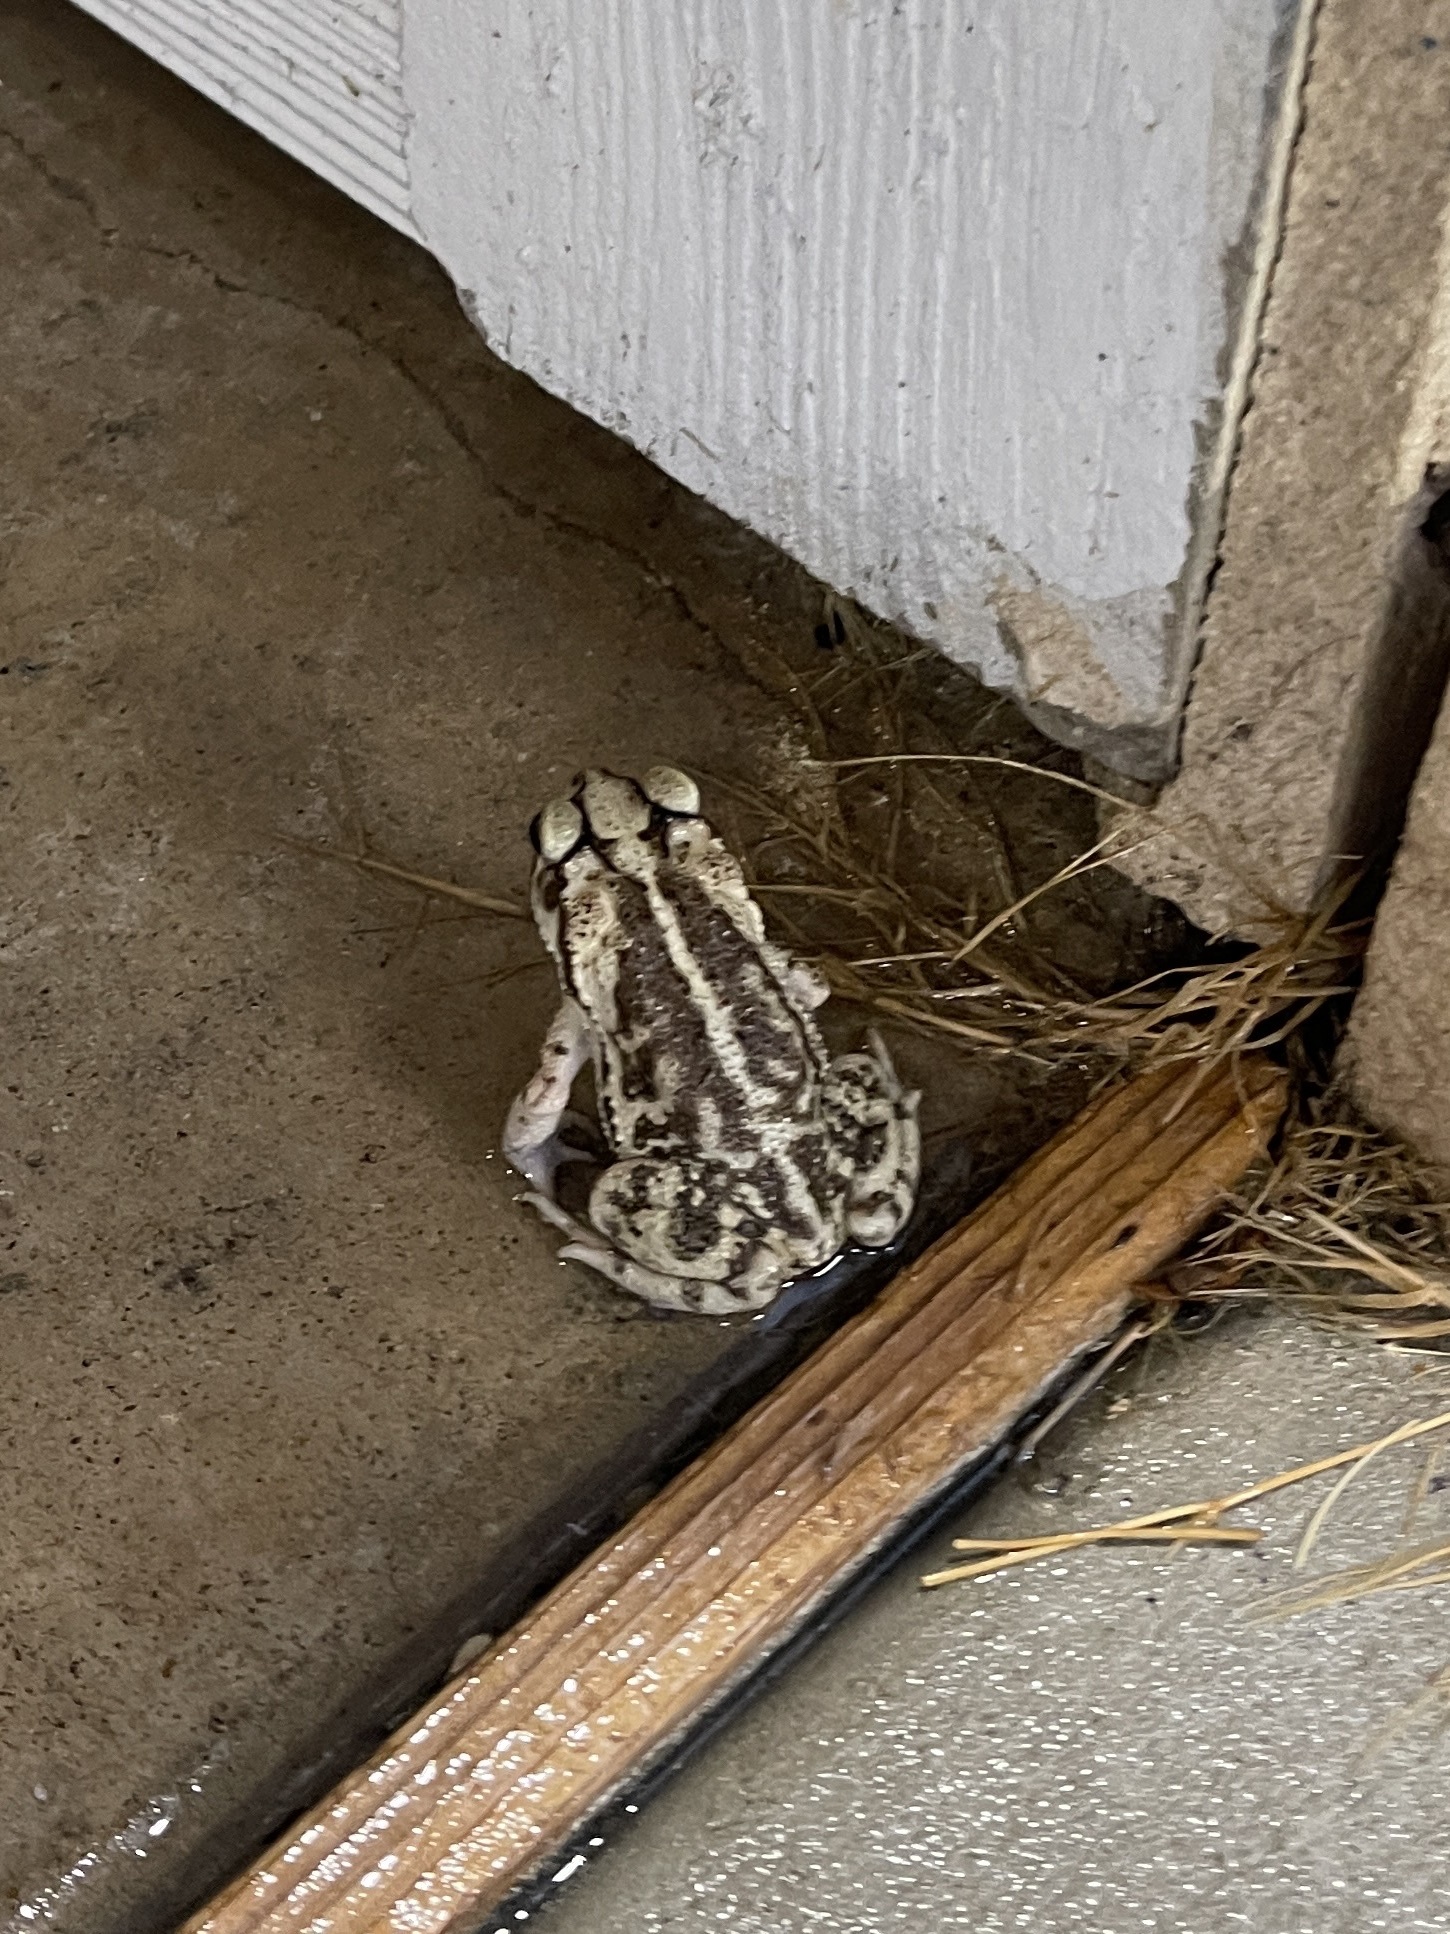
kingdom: Animalia
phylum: Chordata
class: Amphibia
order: Anura
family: Bufonidae
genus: Incilius
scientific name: Incilius nebulifer
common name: Gulf coast toad
